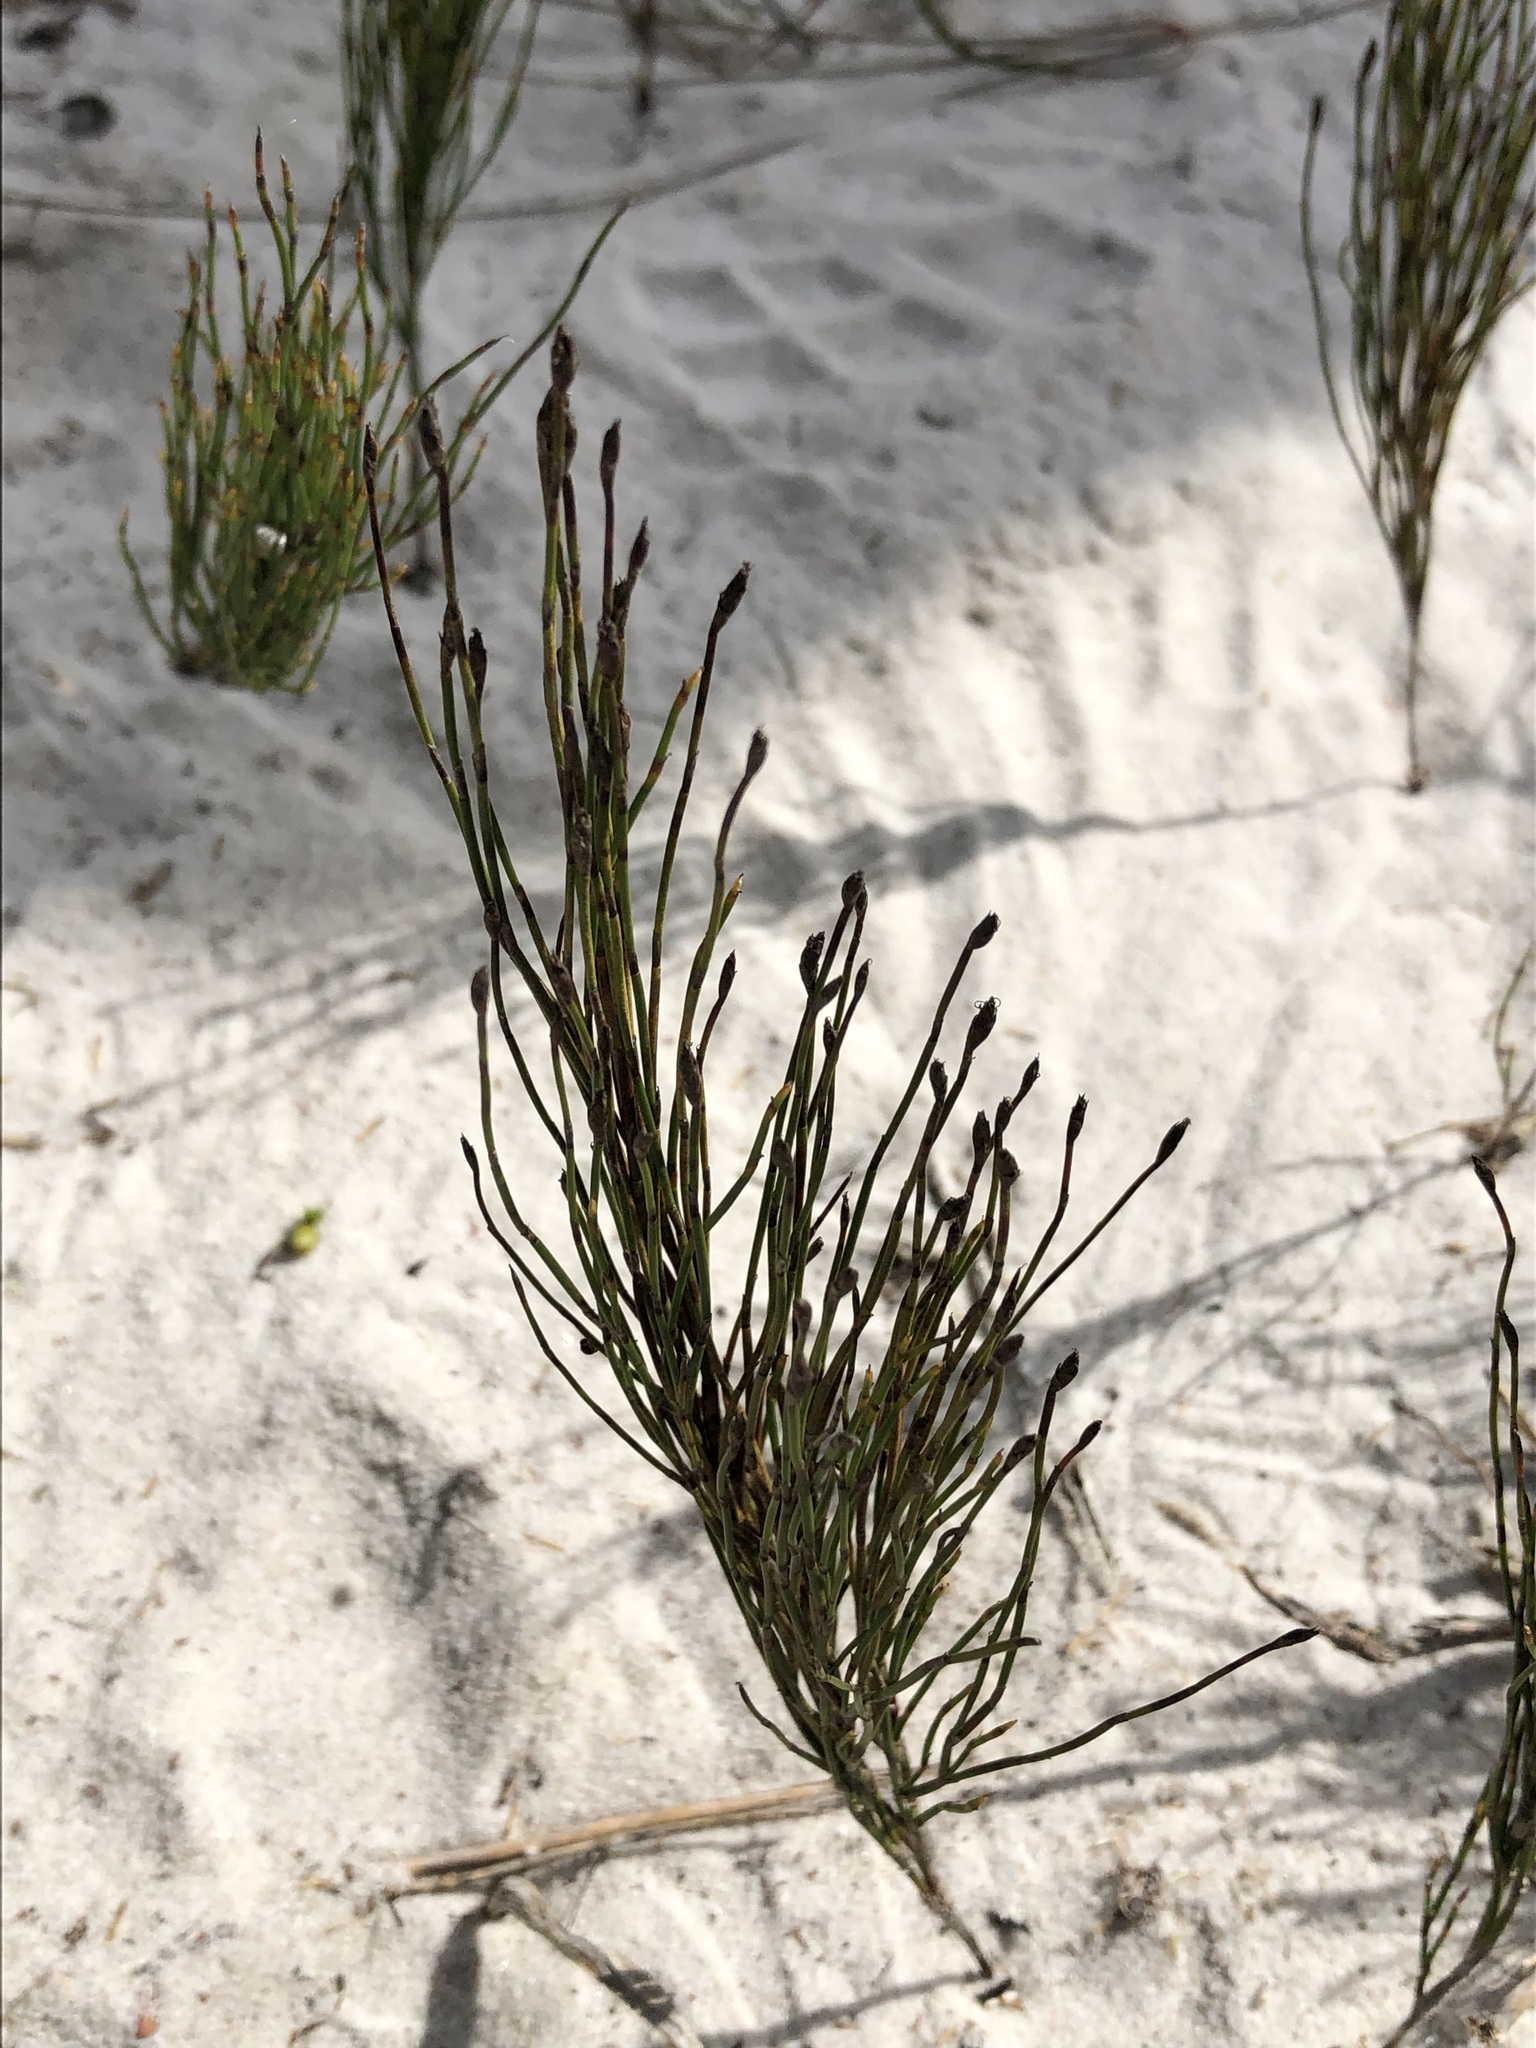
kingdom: Plantae
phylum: Tracheophyta
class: Liliopsida
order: Poales
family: Restionaceae
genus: Restio
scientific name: Restio eleocharis
